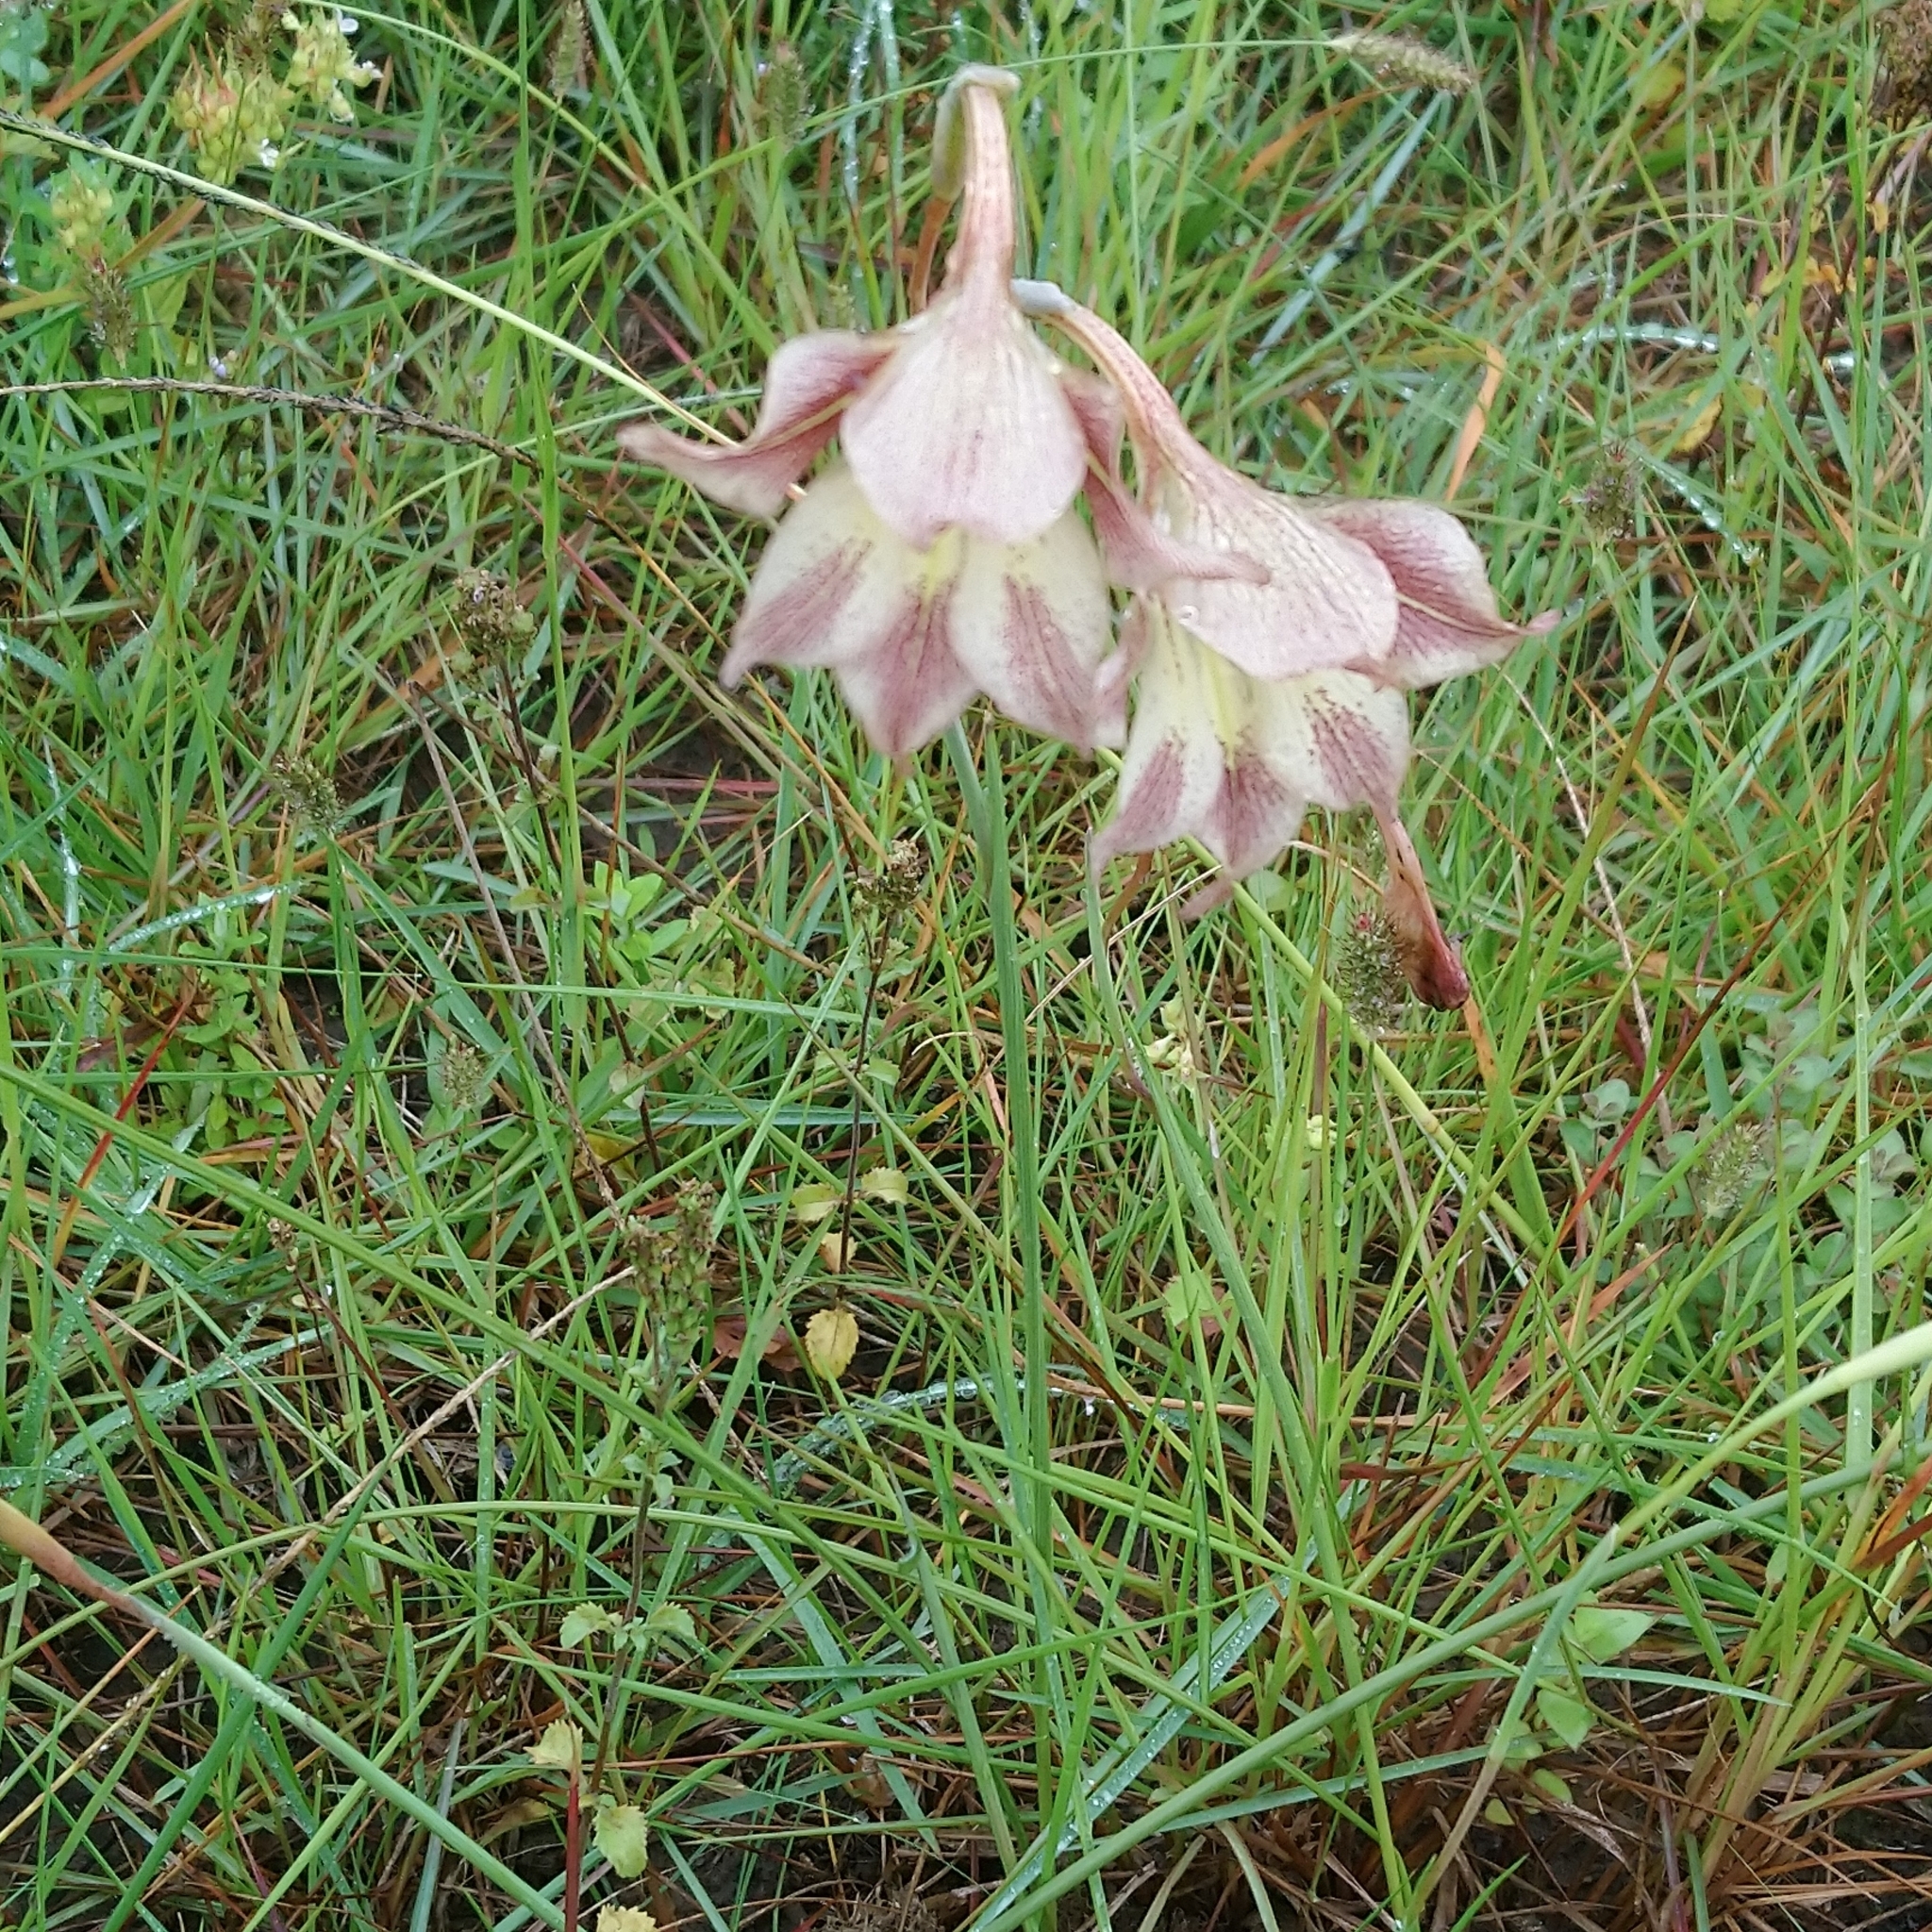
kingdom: Plantae
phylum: Tracheophyta
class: Liliopsida
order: Asparagales
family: Iridaceae
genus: Gladiolus
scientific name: Gladiolus tristis
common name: Ever-flowering gladiolus
